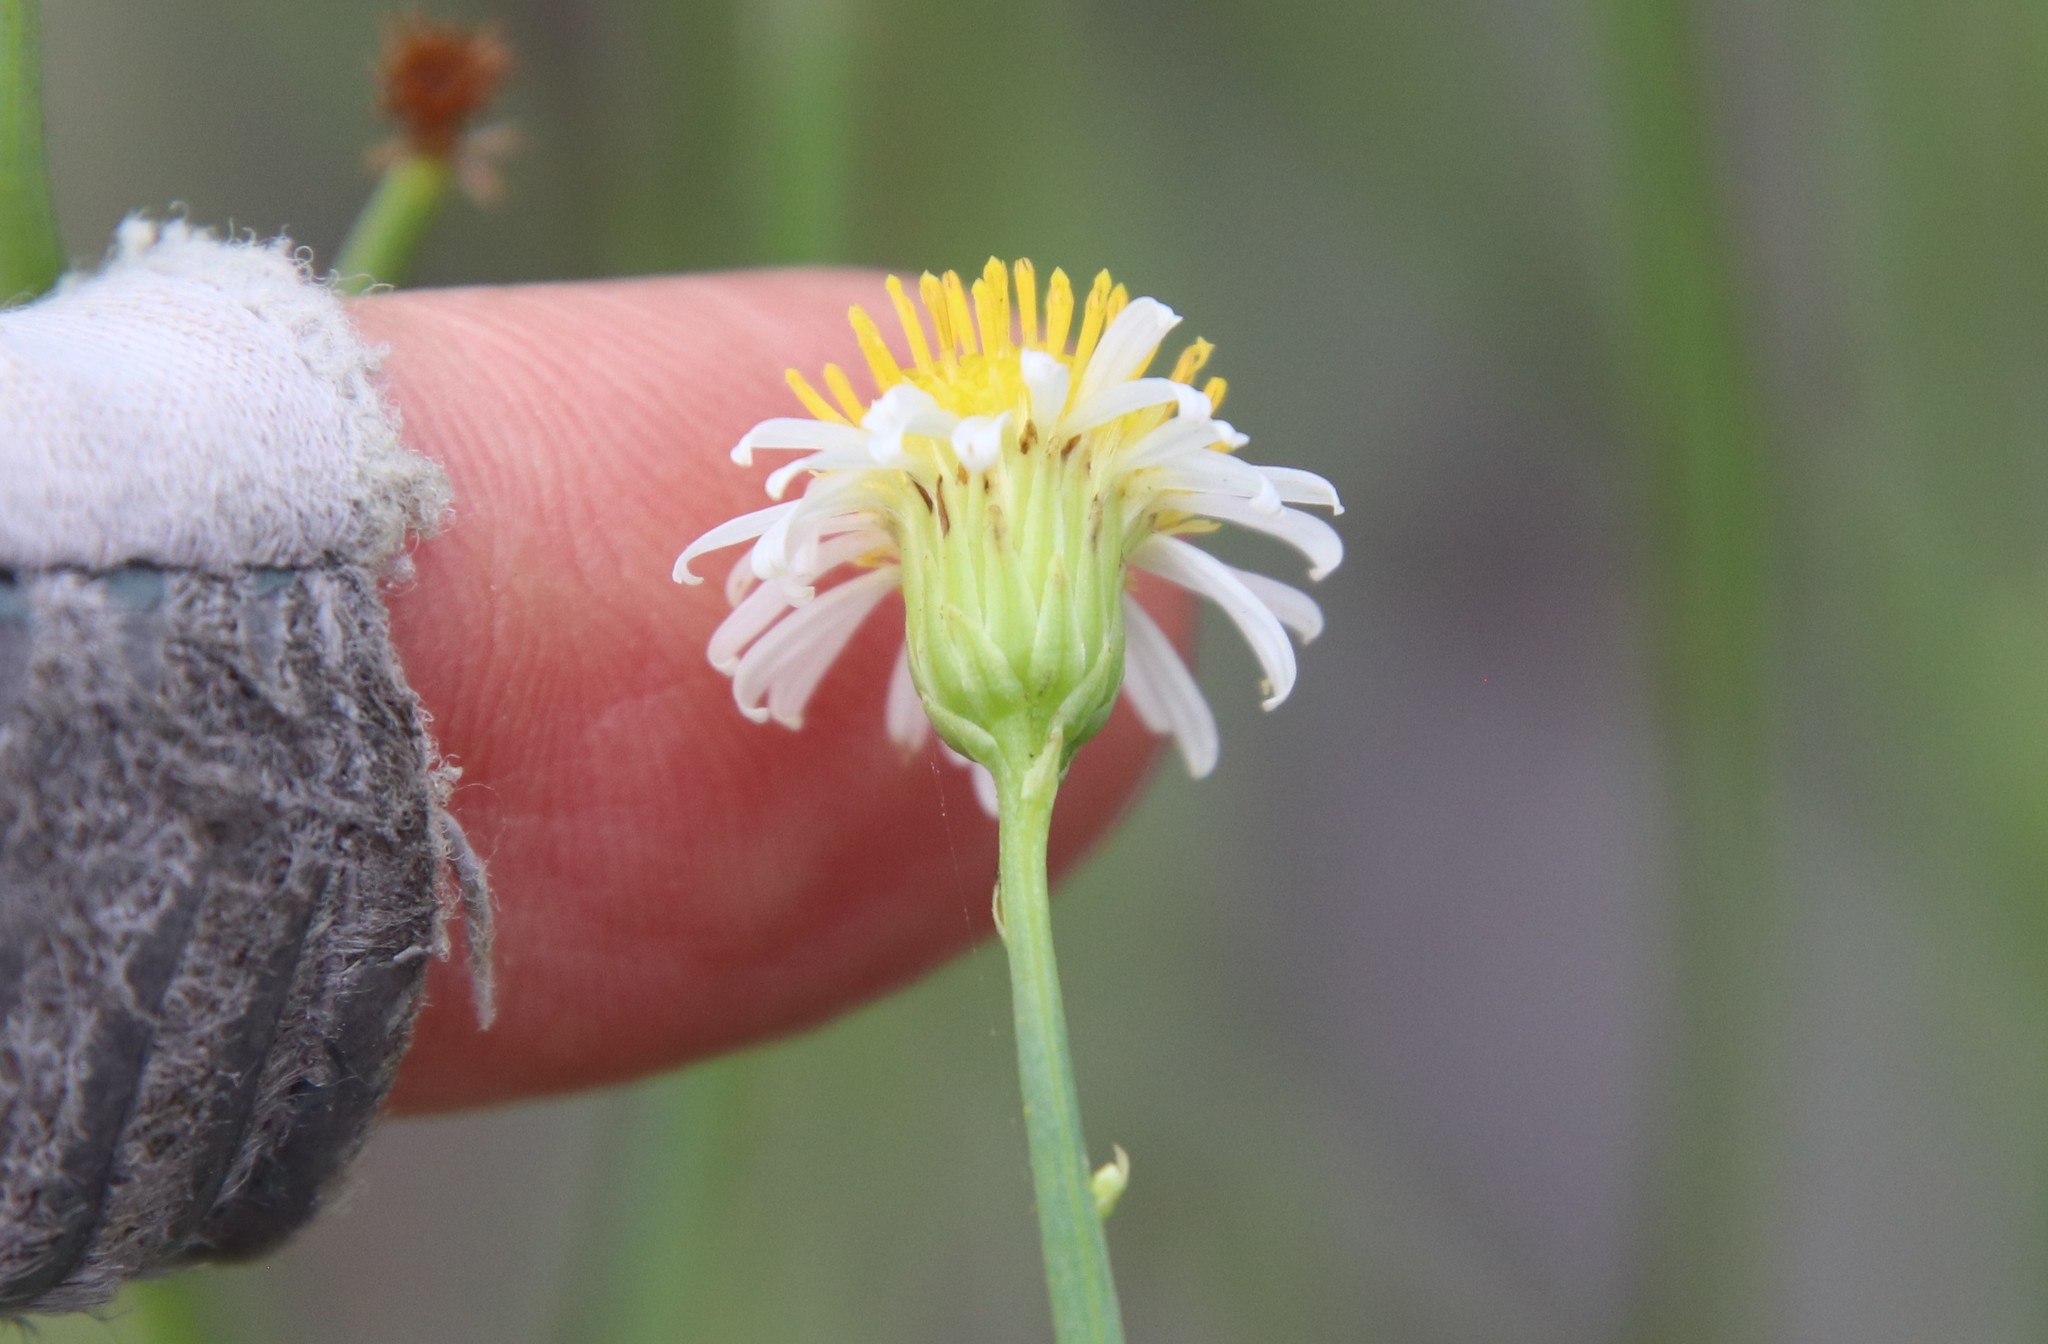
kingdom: Plantae
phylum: Tracheophyta
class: Magnoliopsida
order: Asterales
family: Asteraceae
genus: Chloracantha
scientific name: Chloracantha spinosa
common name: Mexican devilweed
